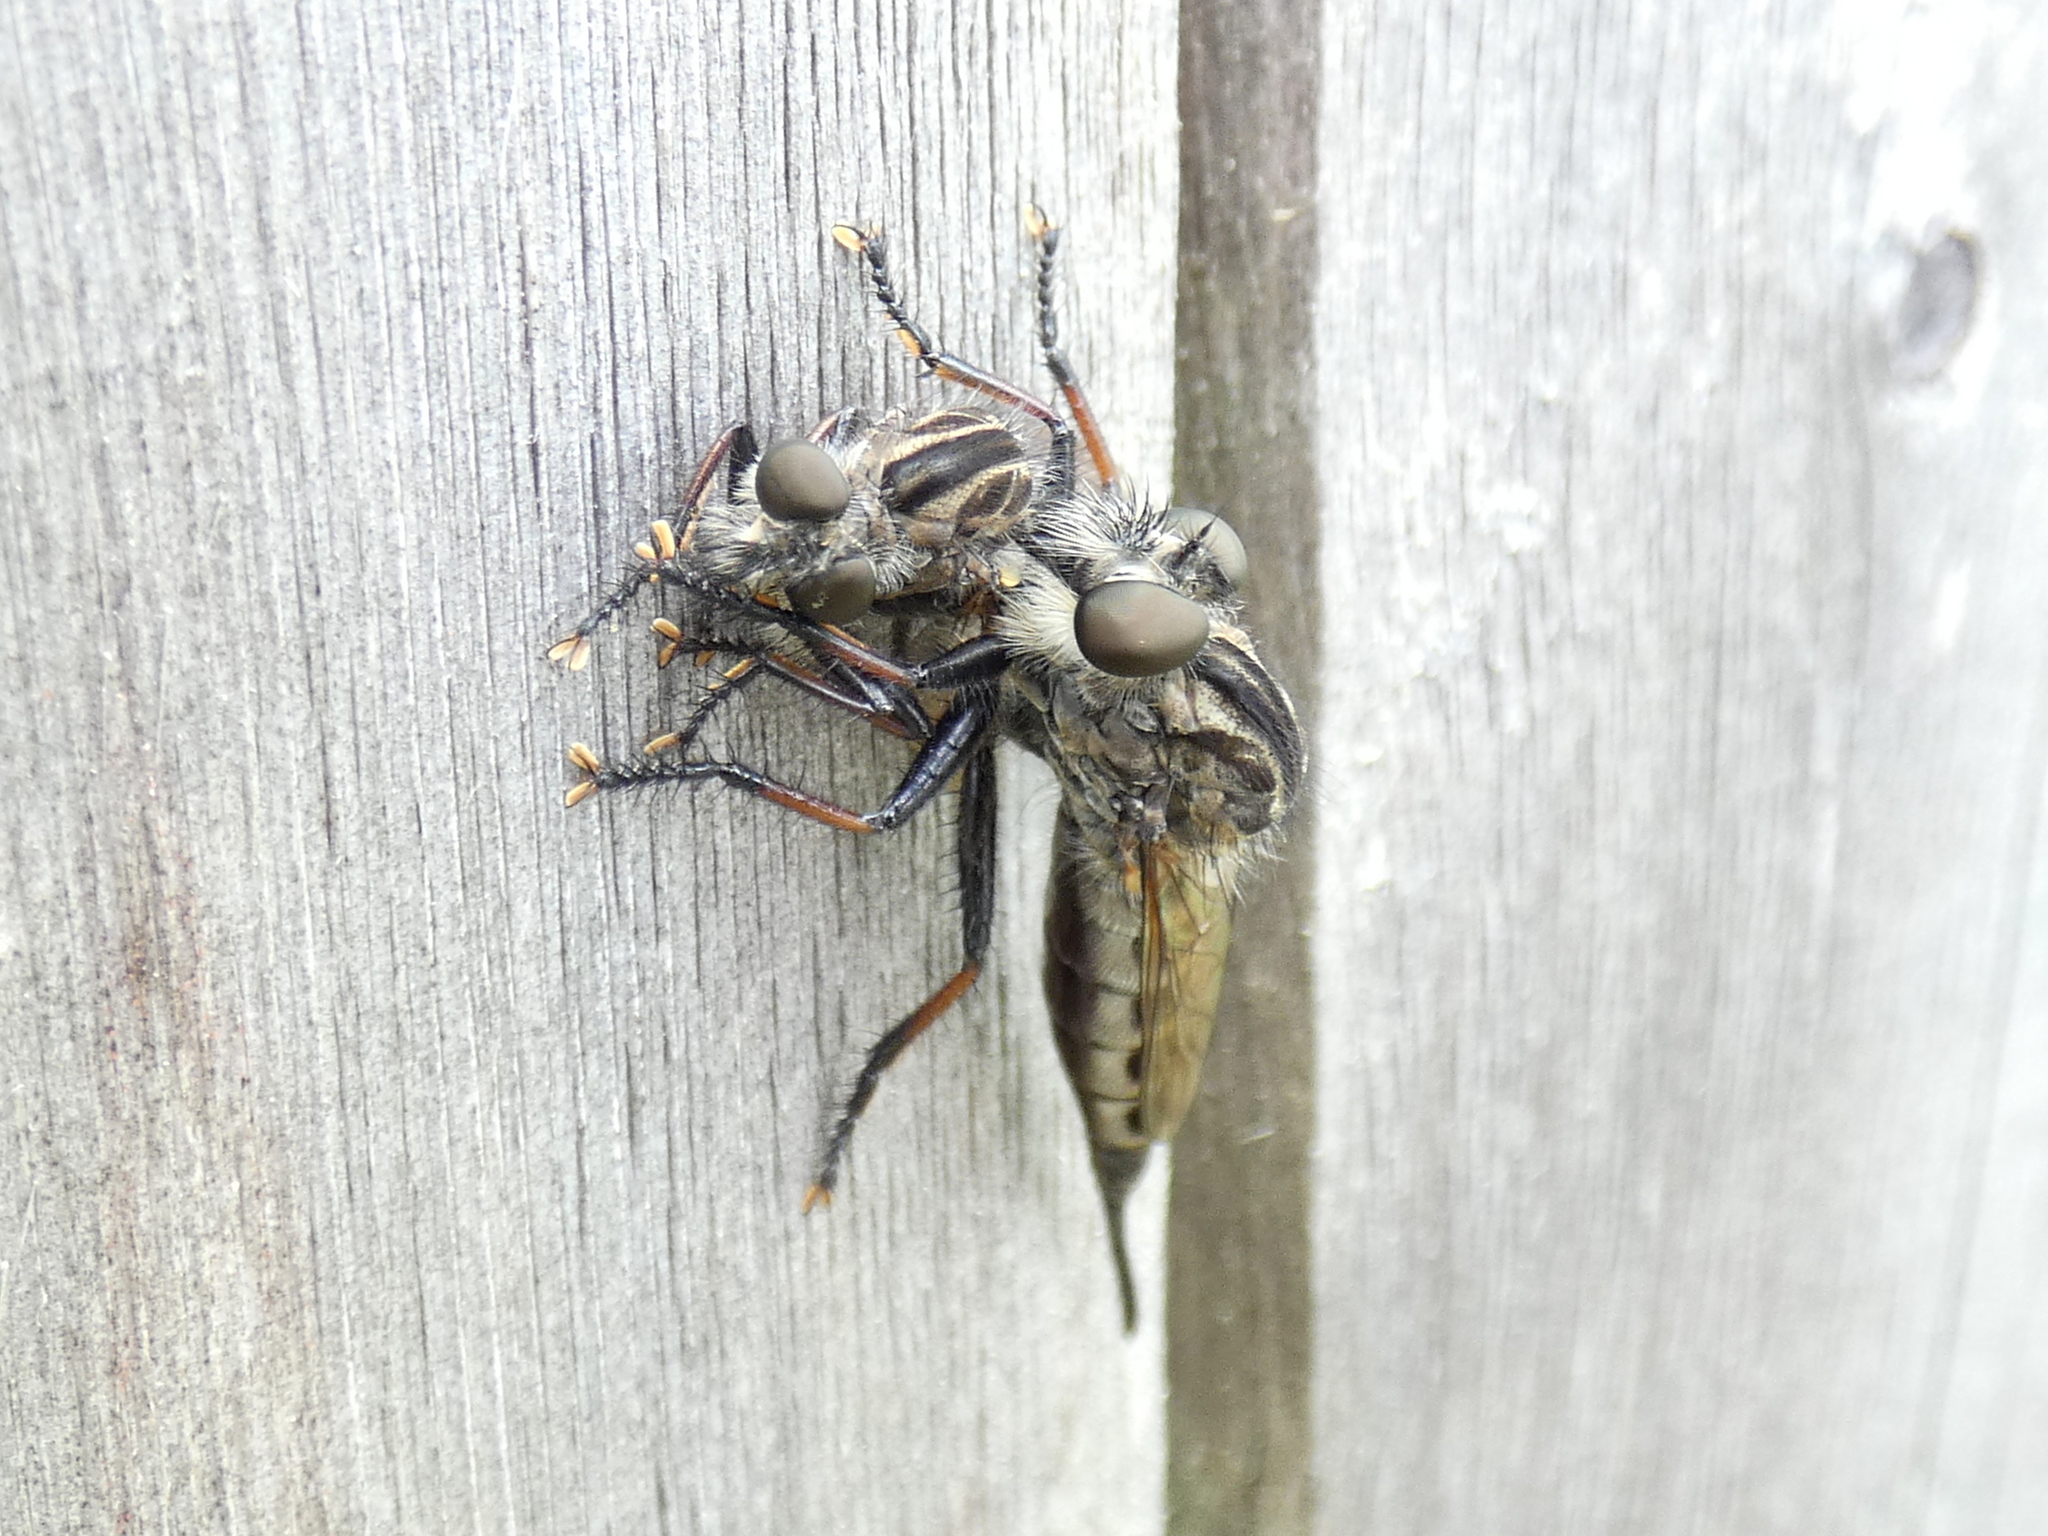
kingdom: Animalia
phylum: Arthropoda
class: Insecta
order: Diptera
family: Asilidae
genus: Efferia
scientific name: Efferia aestuans
